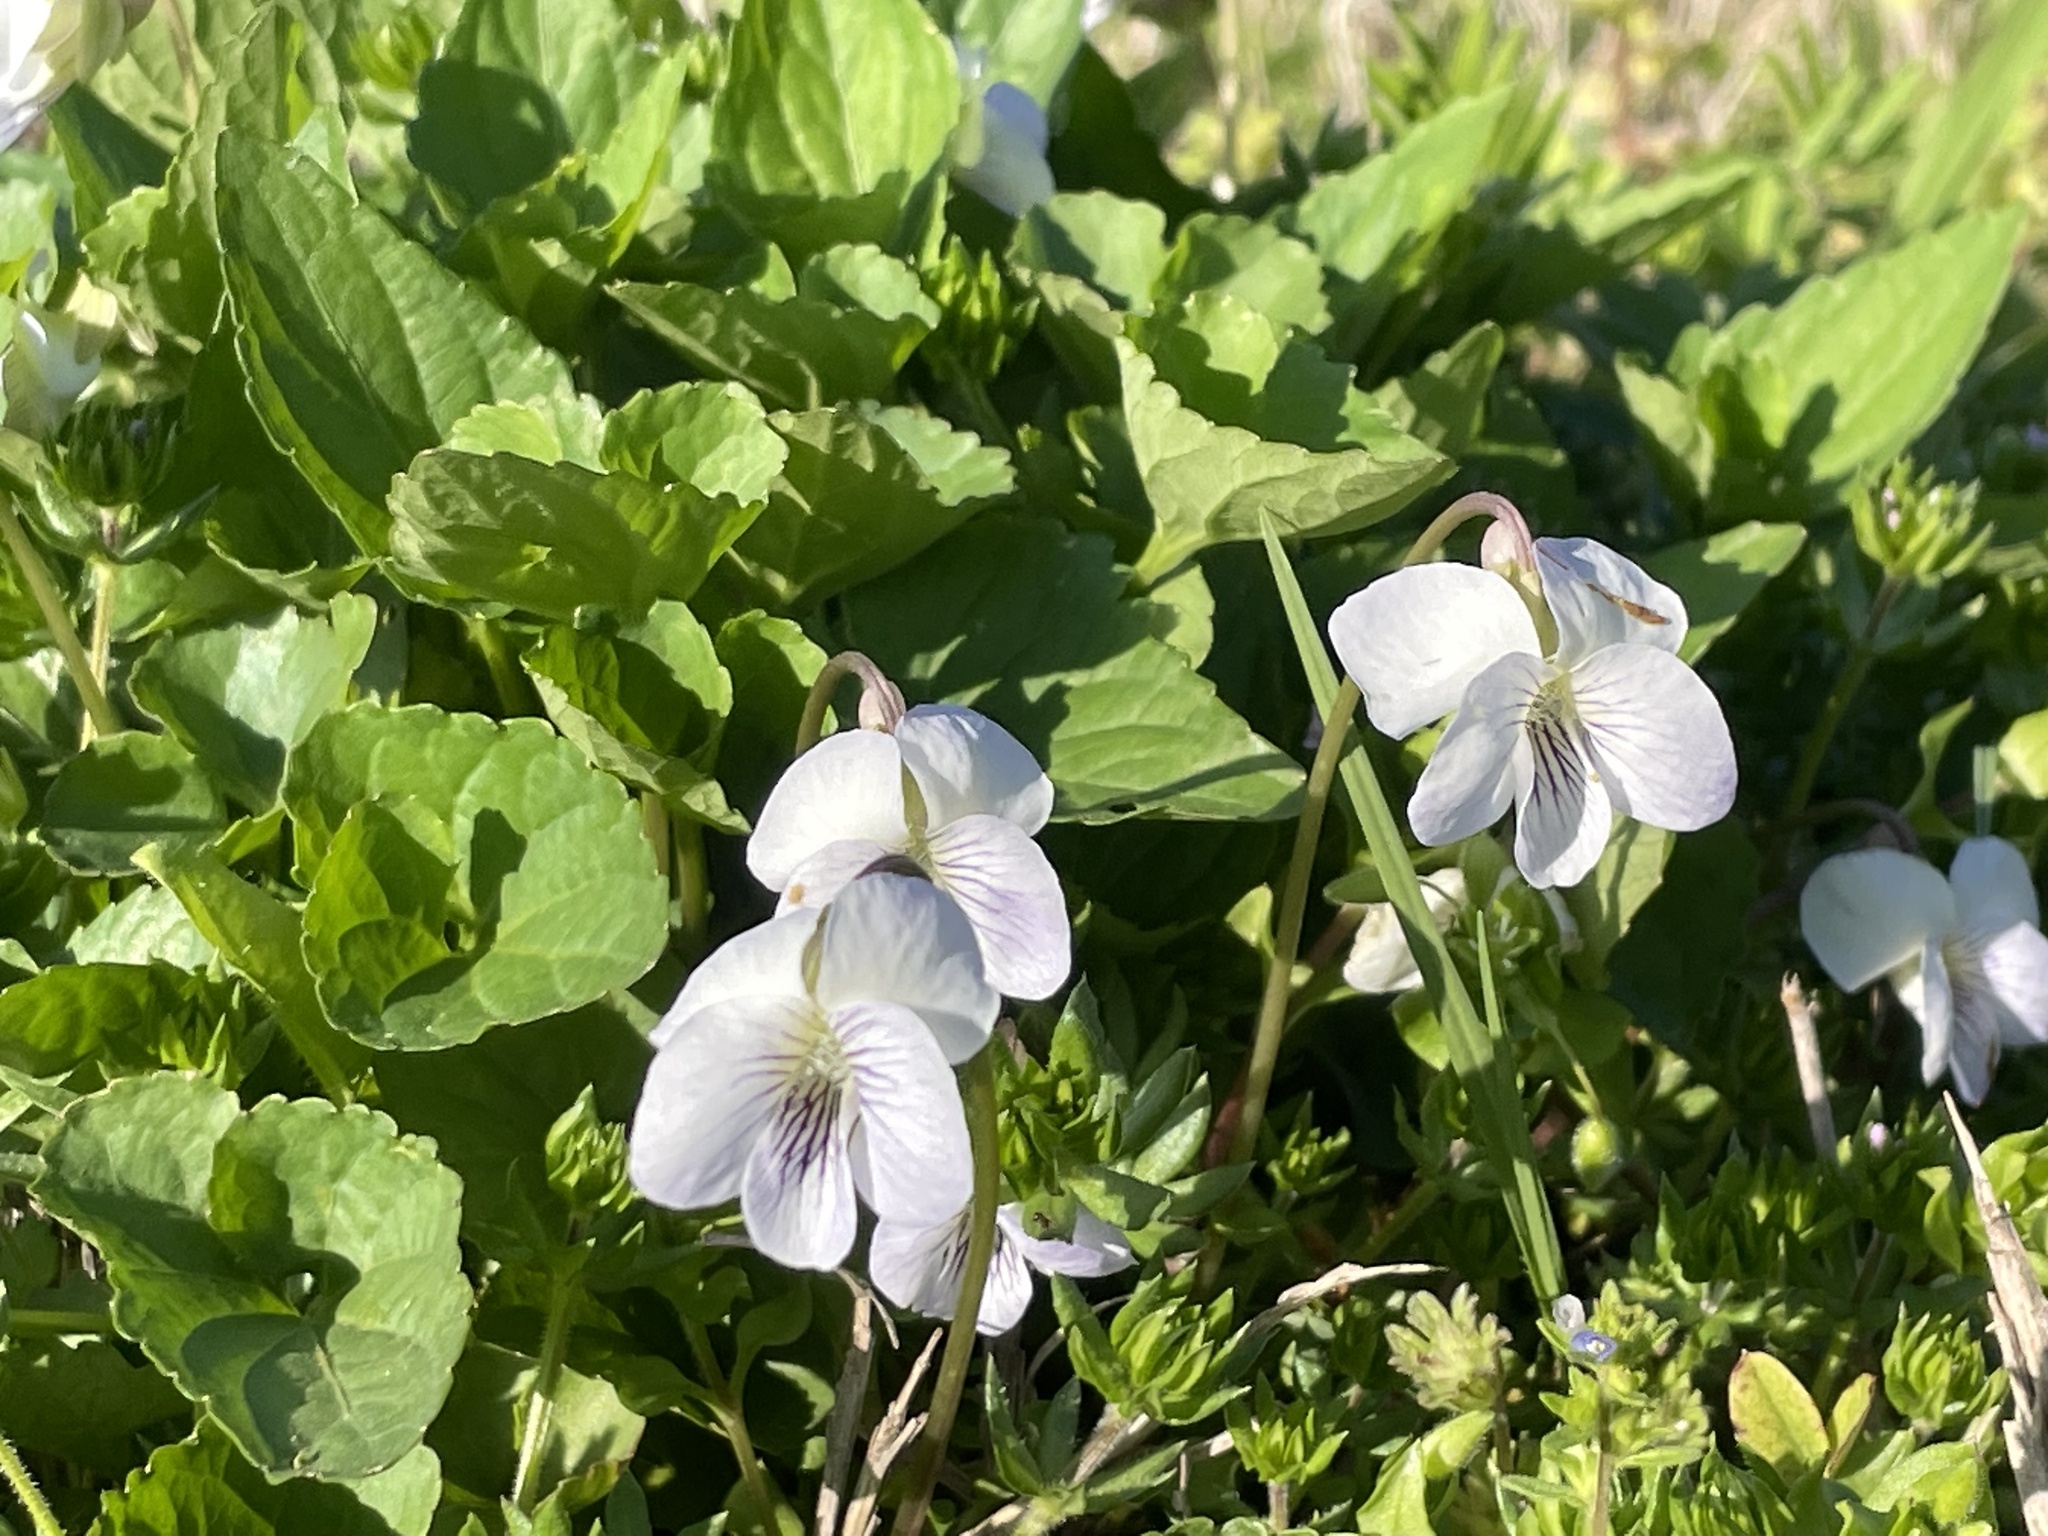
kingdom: Plantae
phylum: Tracheophyta
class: Magnoliopsida
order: Malpighiales
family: Violaceae
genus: Viola
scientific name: Viola missouriensis
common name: Missouri violet
